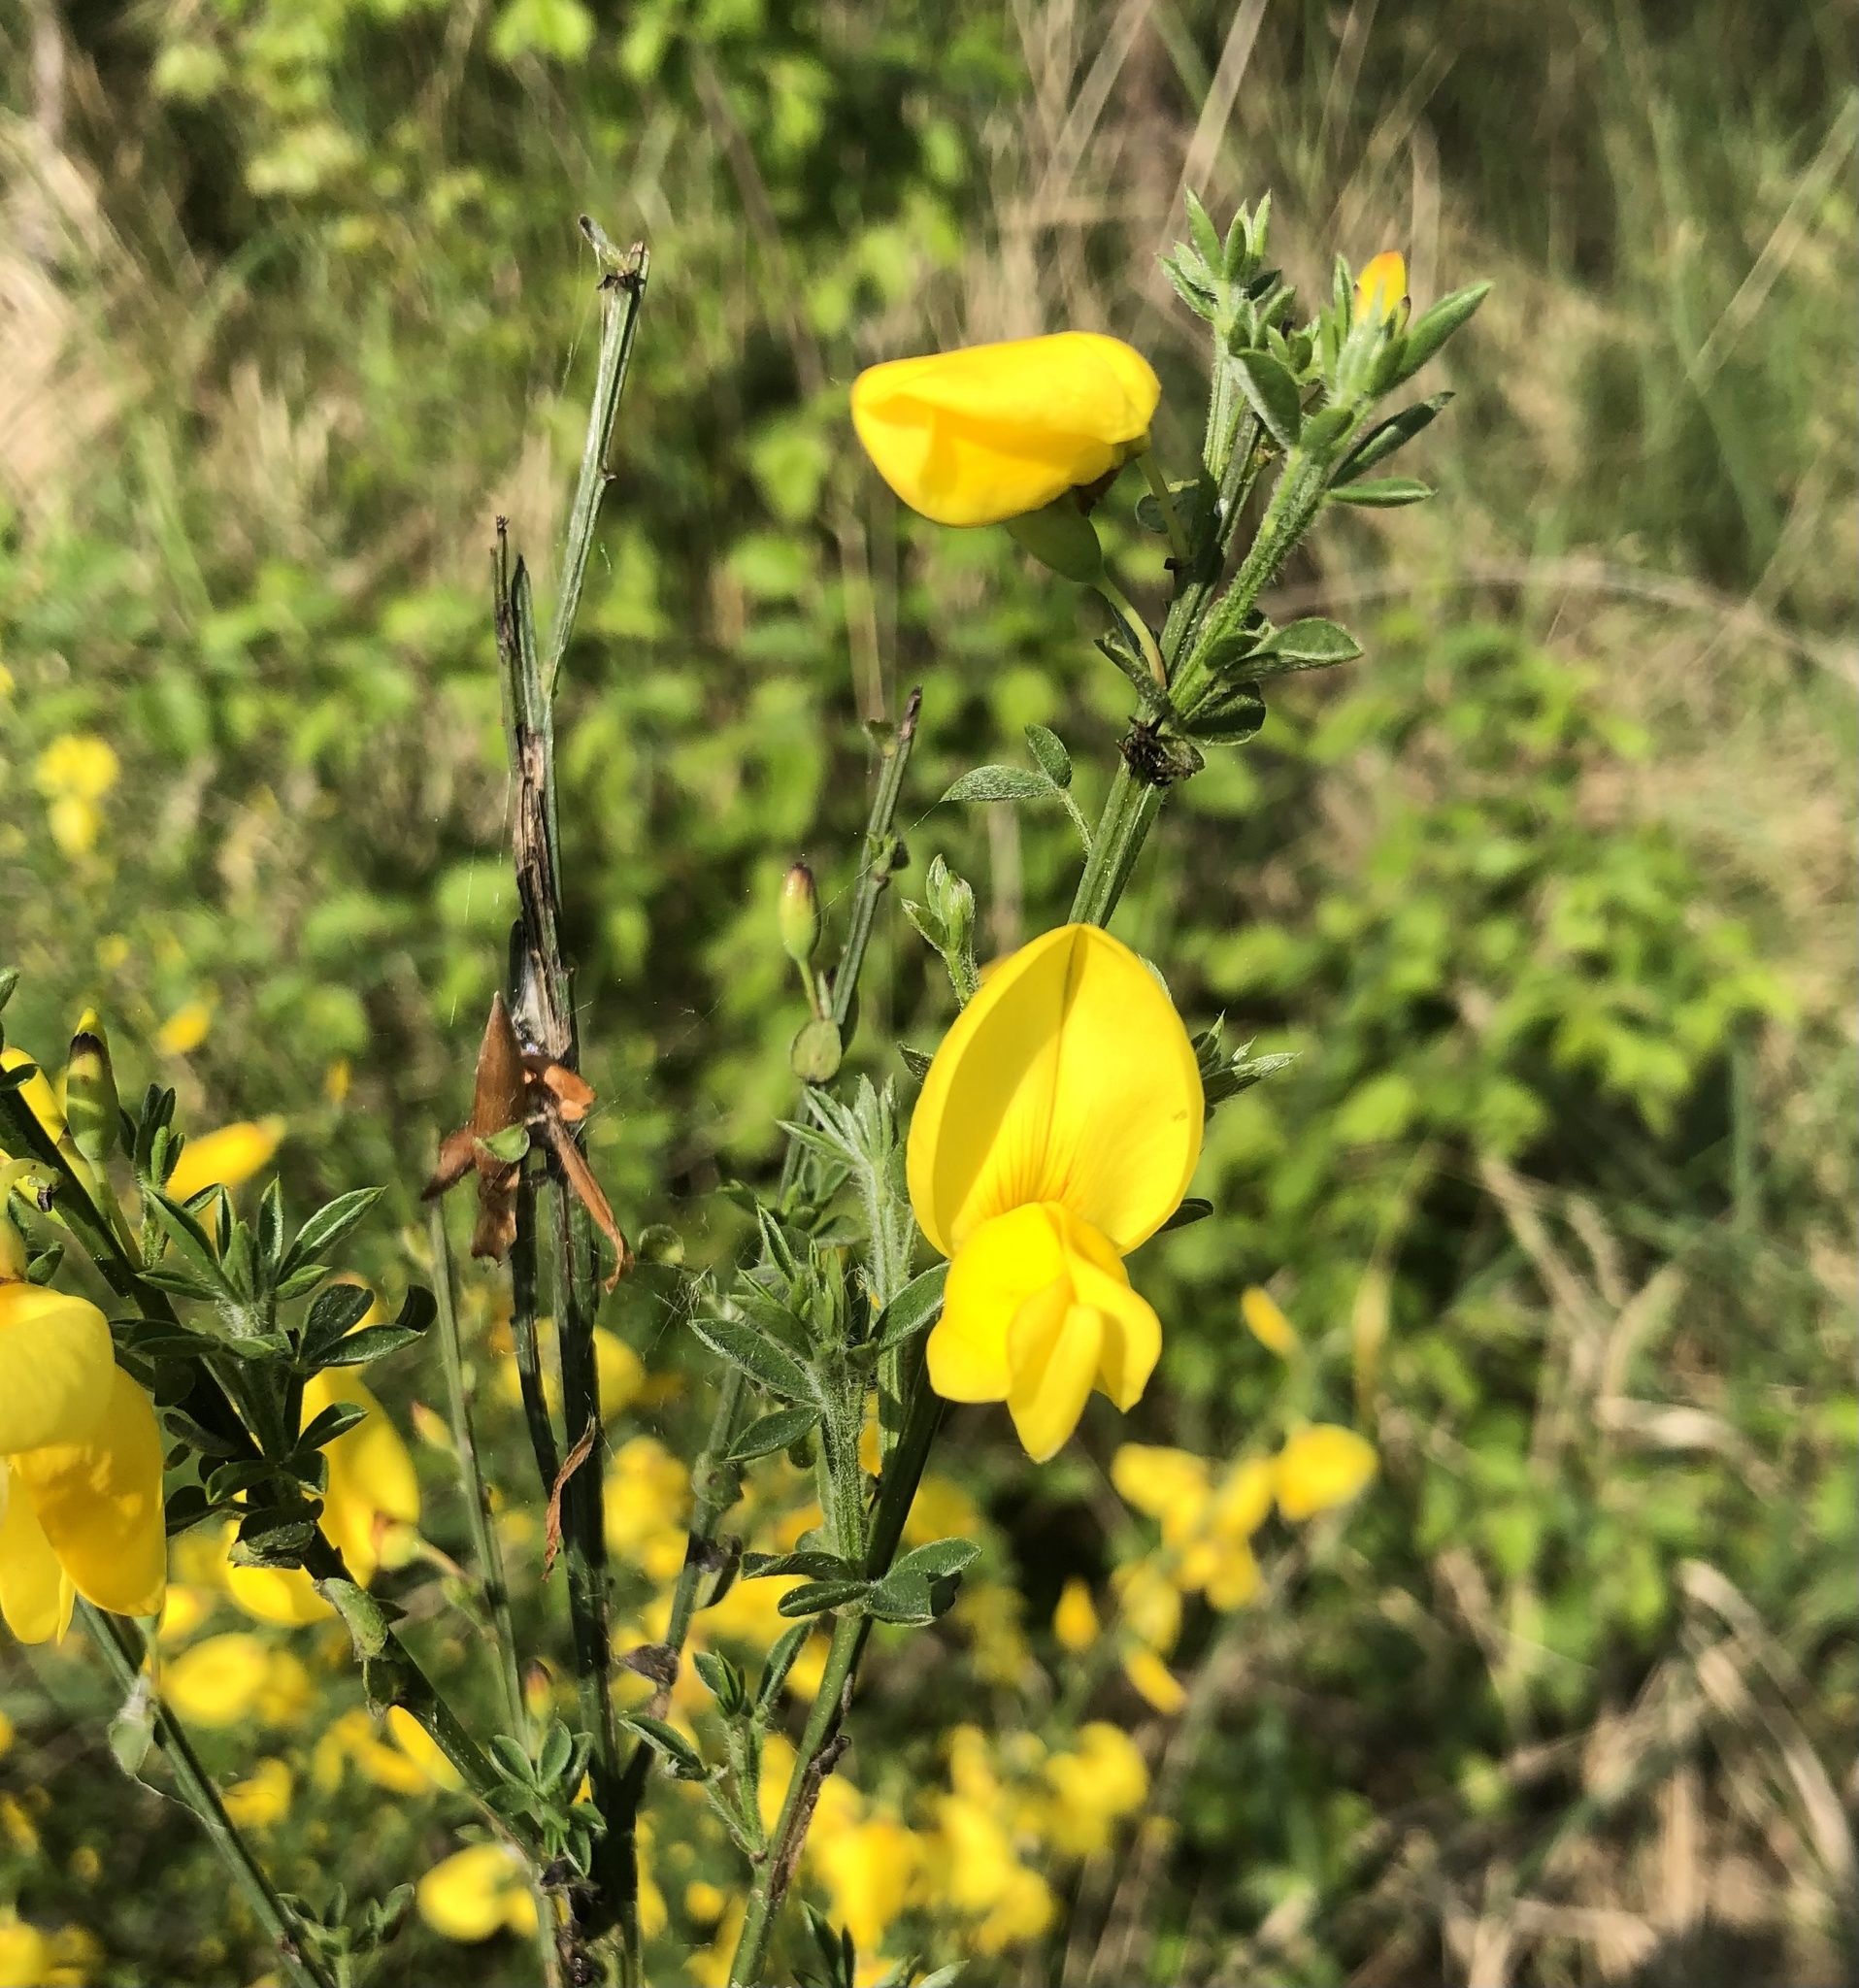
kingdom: Plantae
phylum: Tracheophyta
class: Magnoliopsida
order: Fabales
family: Fabaceae
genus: Cytisus
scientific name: Cytisus scoparius
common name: Scotch broom
